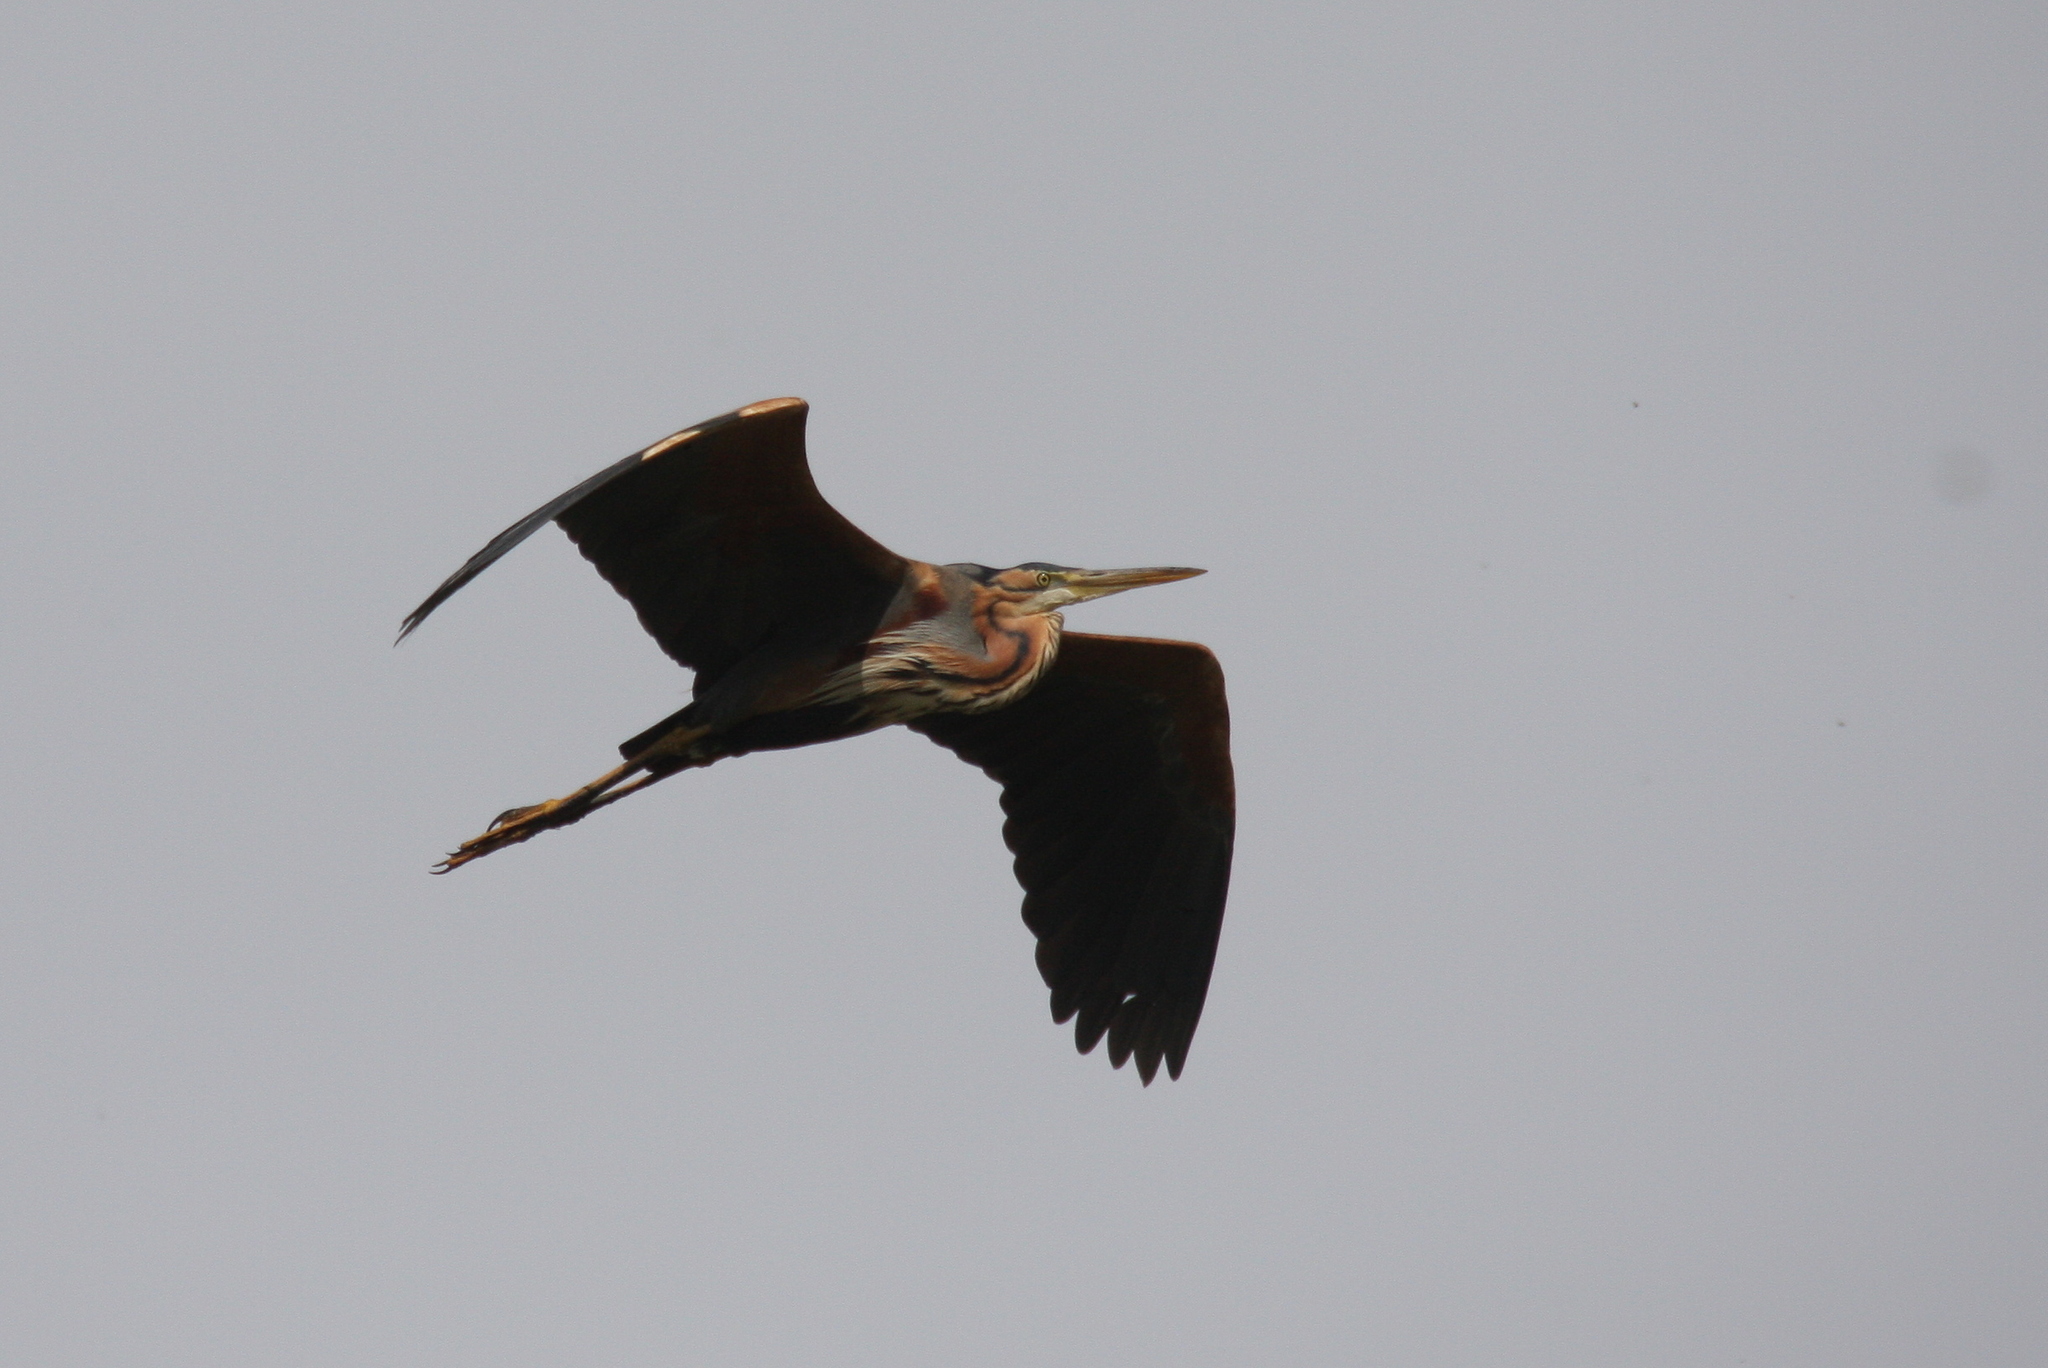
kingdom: Animalia
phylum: Chordata
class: Aves
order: Pelecaniformes
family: Ardeidae
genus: Ardea
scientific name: Ardea purpurea
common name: Purple heron
